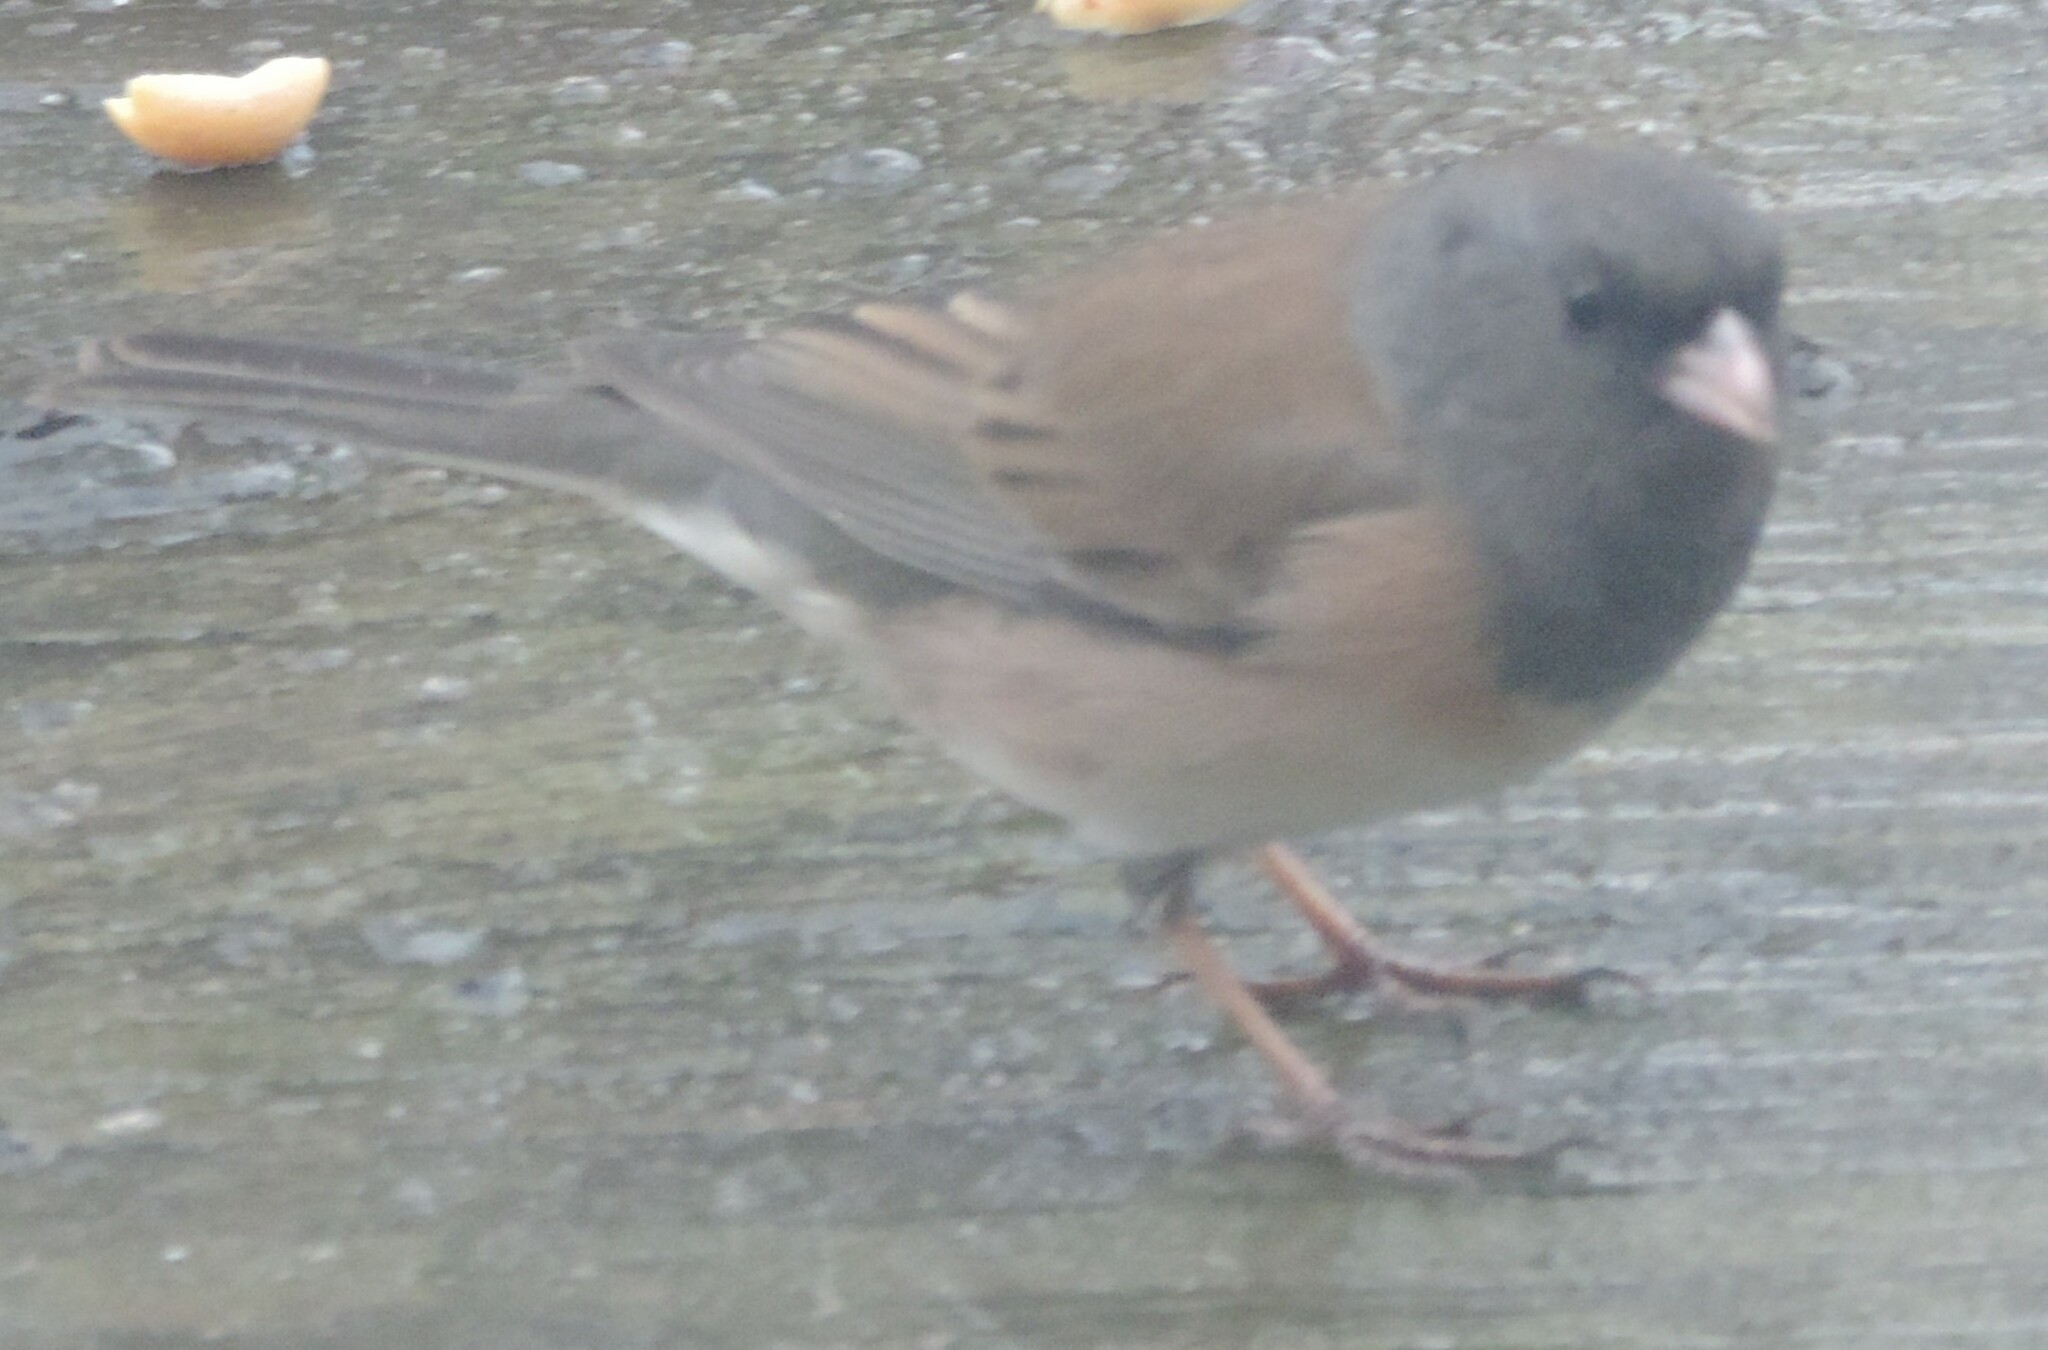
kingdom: Animalia
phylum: Chordata
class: Aves
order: Passeriformes
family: Passerellidae
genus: Junco
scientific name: Junco hyemalis
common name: Dark-eyed junco
